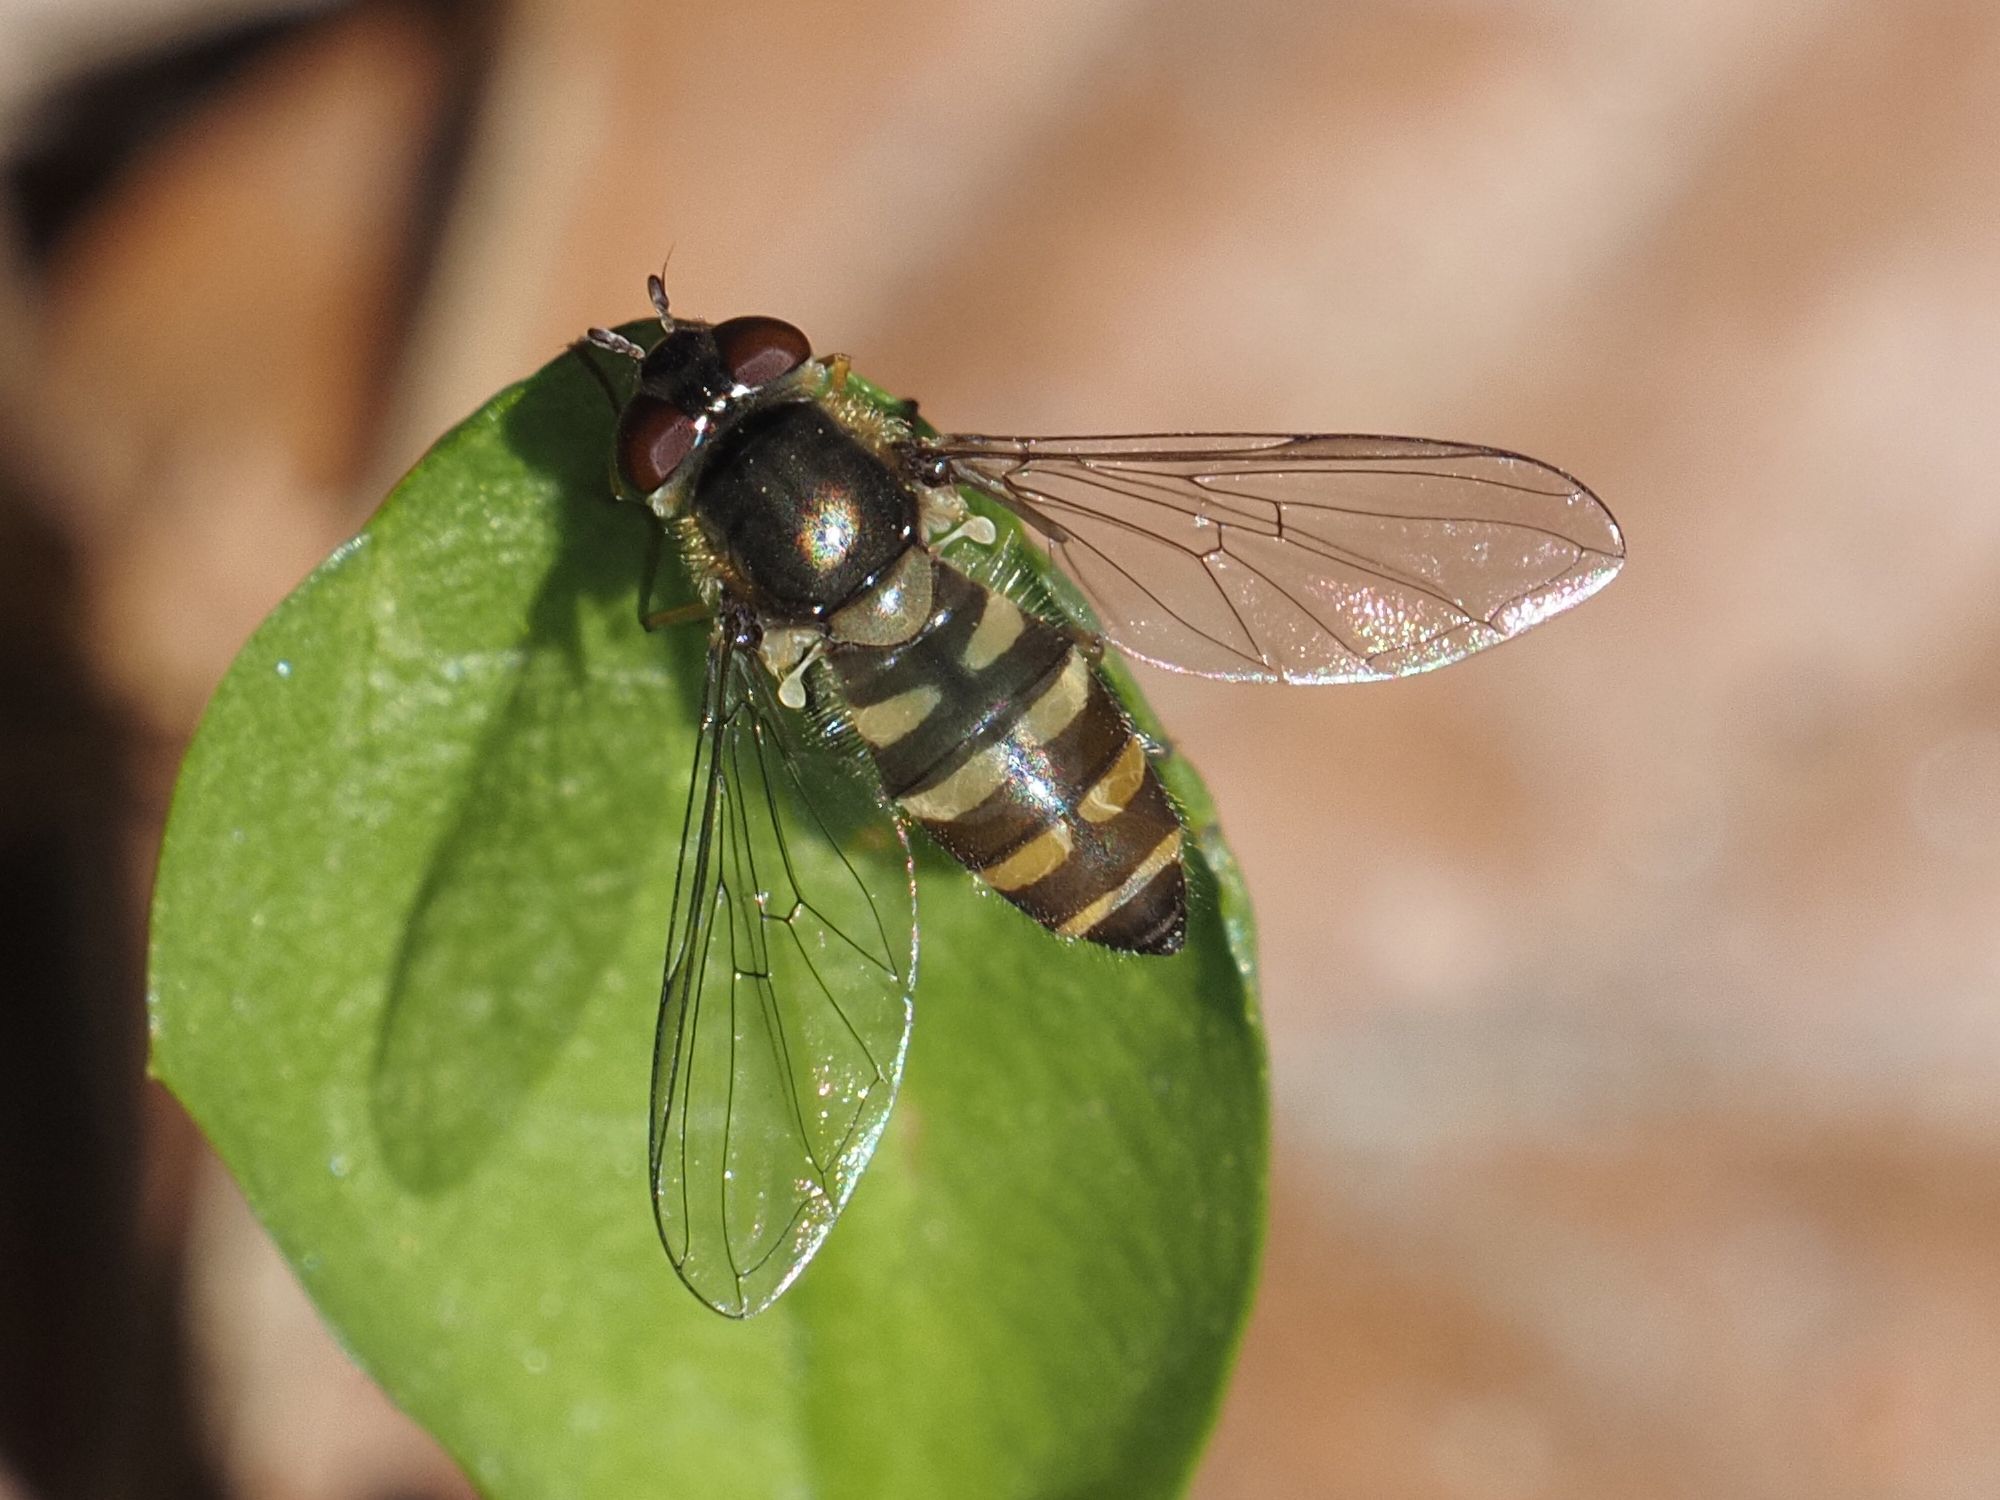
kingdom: Animalia
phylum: Arthropoda
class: Insecta
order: Diptera
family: Syrphidae
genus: Parasyrphus
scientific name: Parasyrphus macularis
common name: Hover fly
